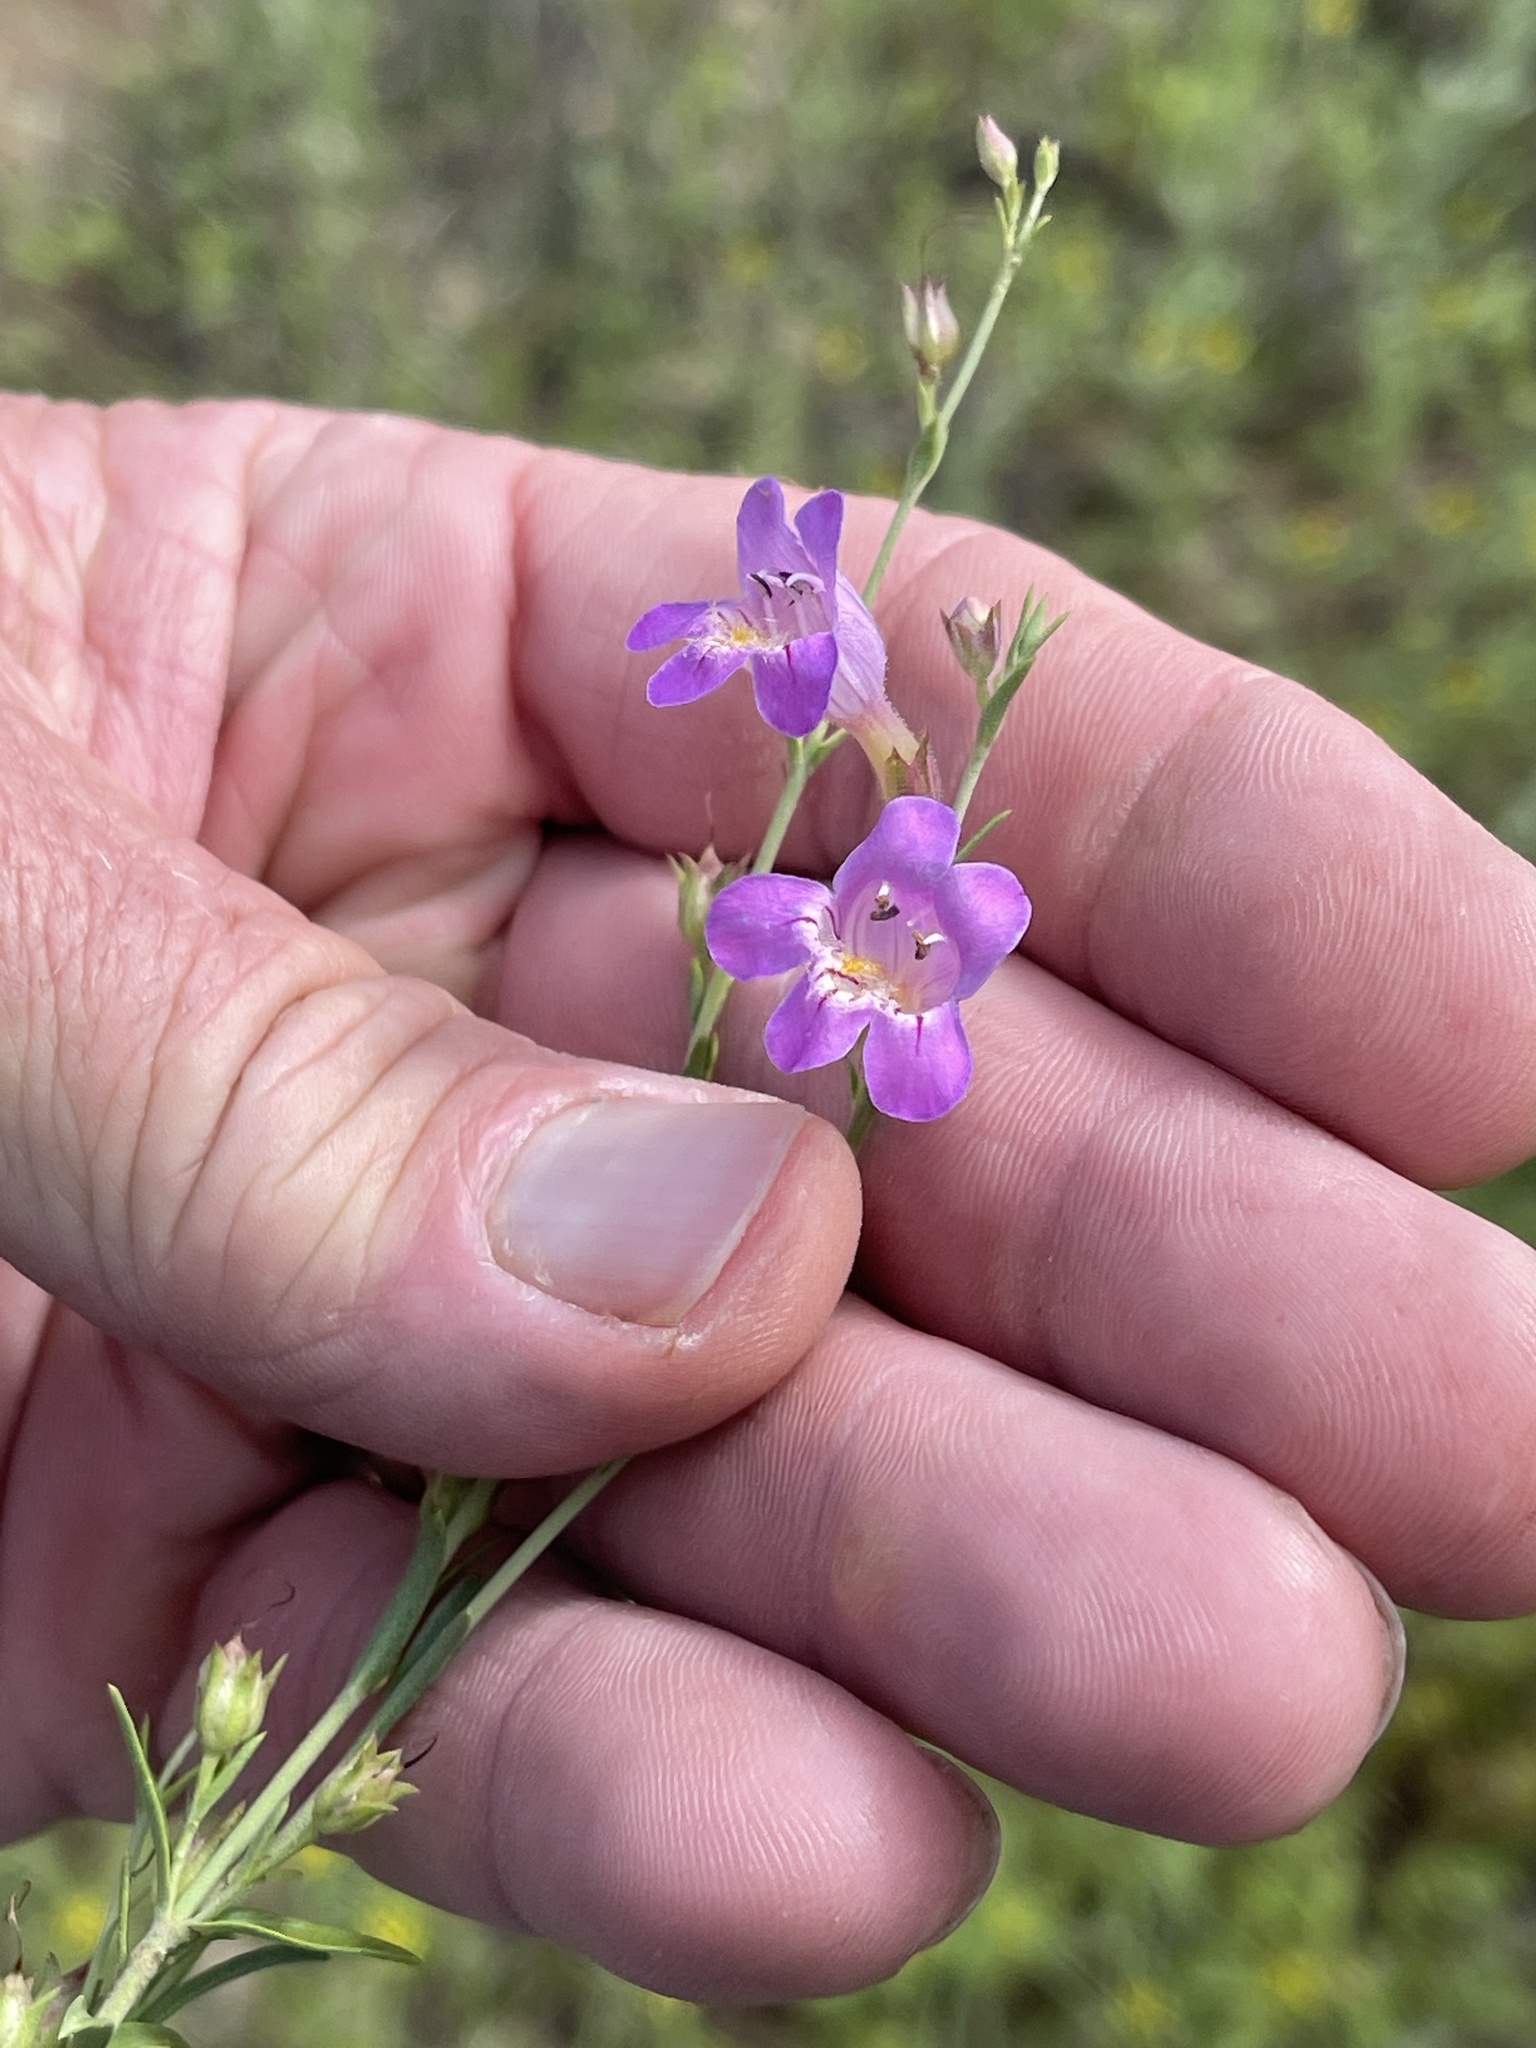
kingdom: Plantae
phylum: Tracheophyta
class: Magnoliopsida
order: Lamiales
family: Plantaginaceae
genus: Penstemon
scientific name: Penstemon linarioides
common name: Siler's penstemon
